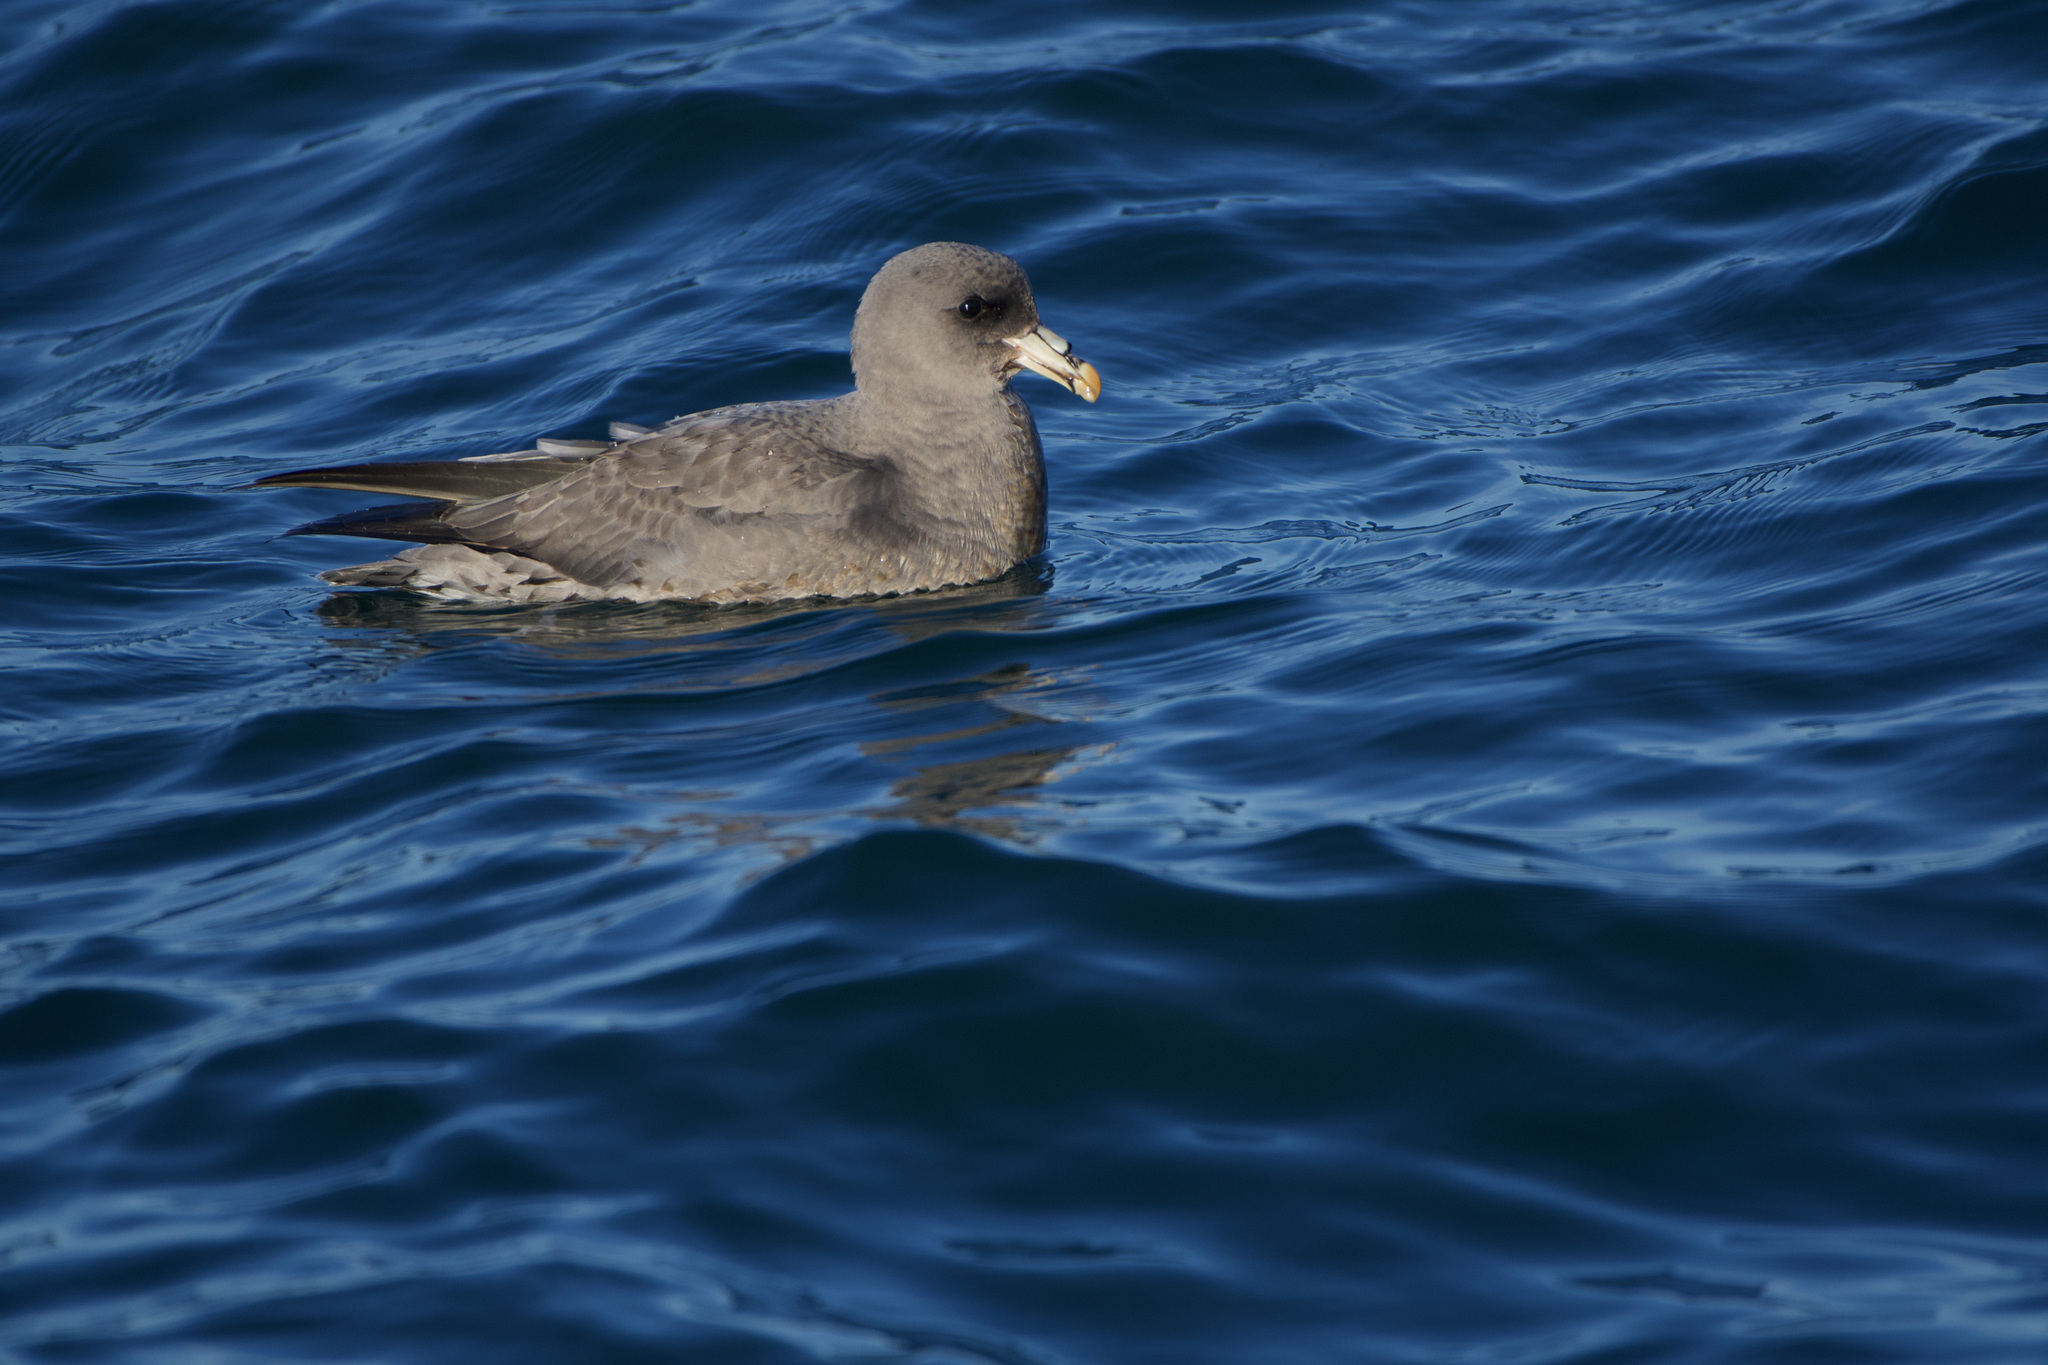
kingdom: Animalia
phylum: Chordata
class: Aves
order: Procellariiformes
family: Procellariidae
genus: Fulmarus
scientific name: Fulmarus glacialis
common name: Northern fulmar
